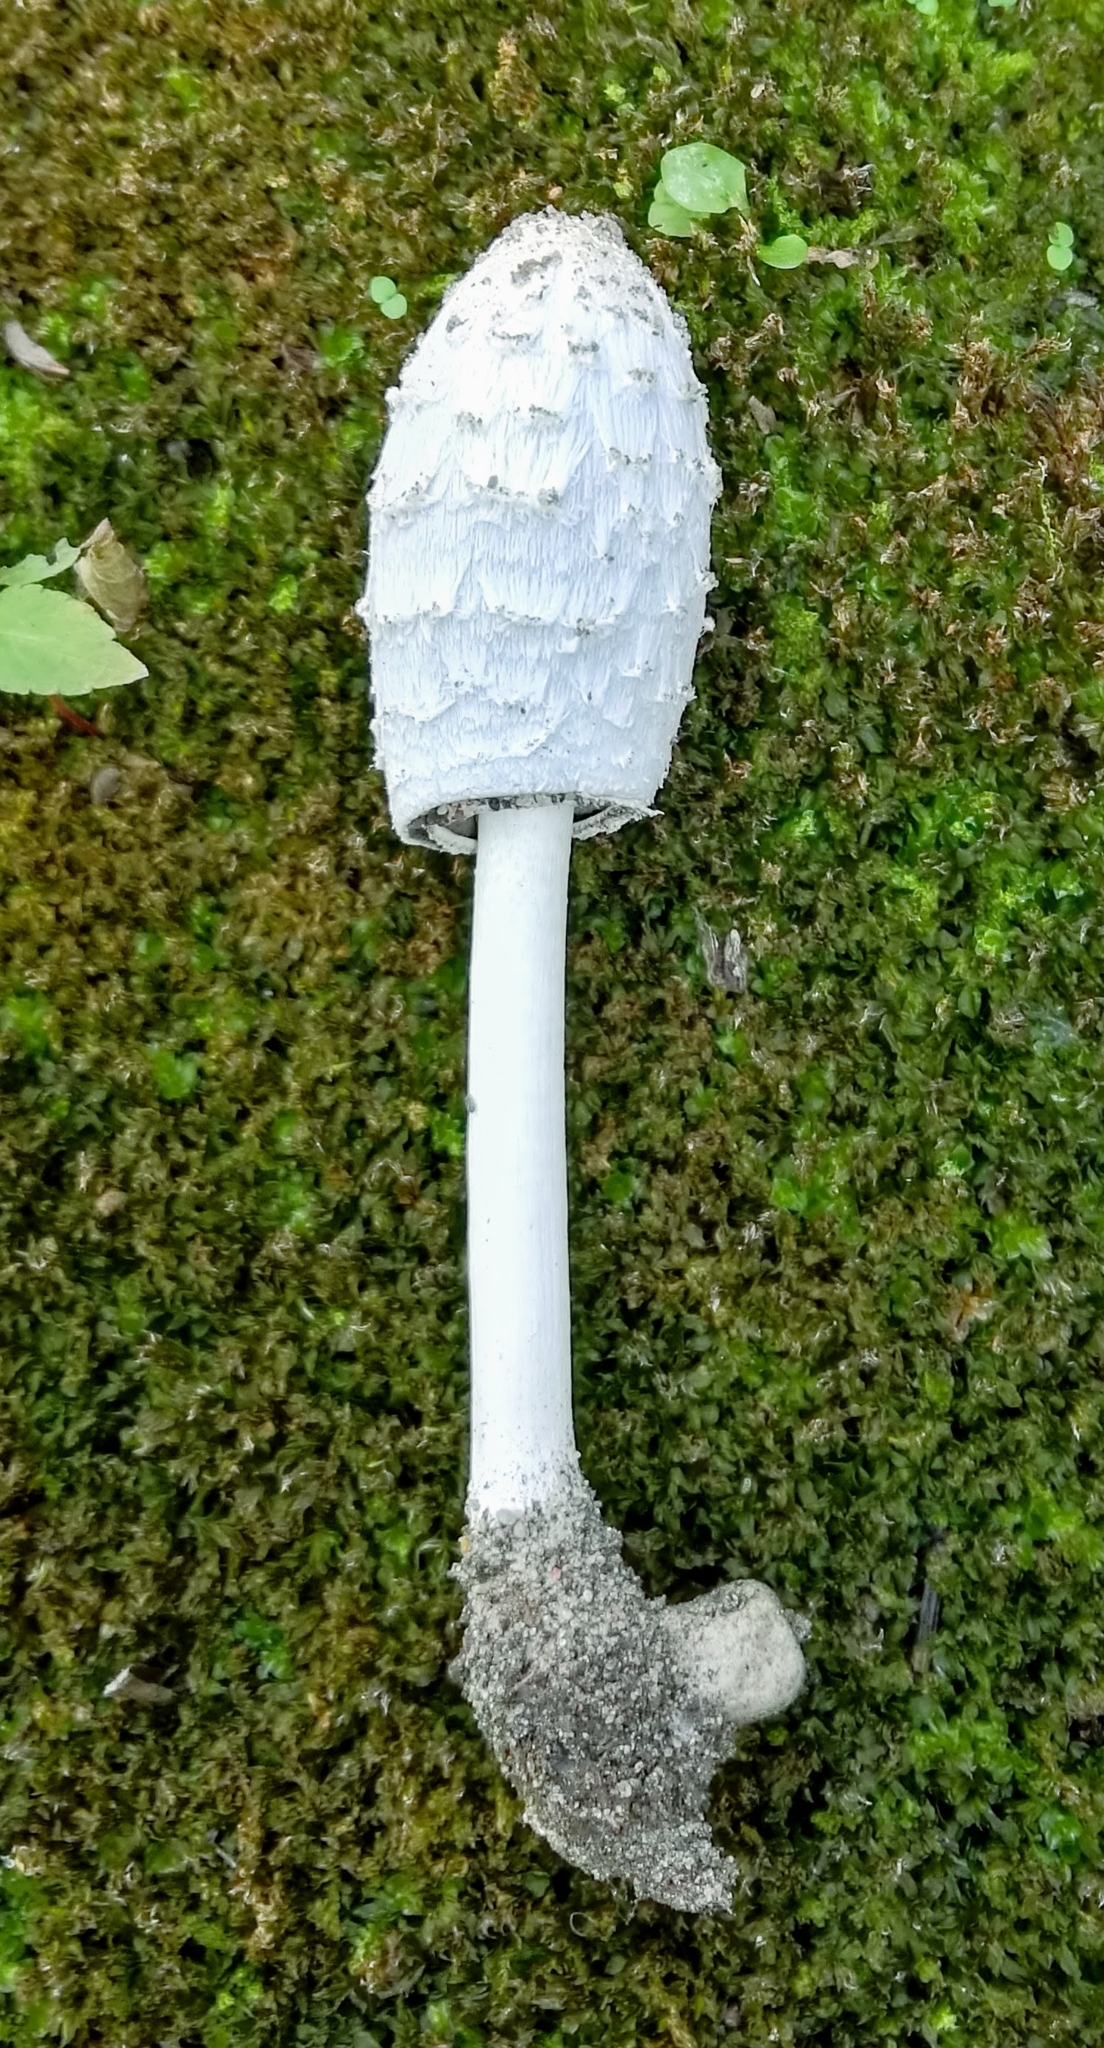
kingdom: Fungi
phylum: Basidiomycota
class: Agaricomycetes
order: Agaricales
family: Agaricaceae
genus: Coprinus
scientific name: Coprinus comatus
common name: Lawyer's wig
